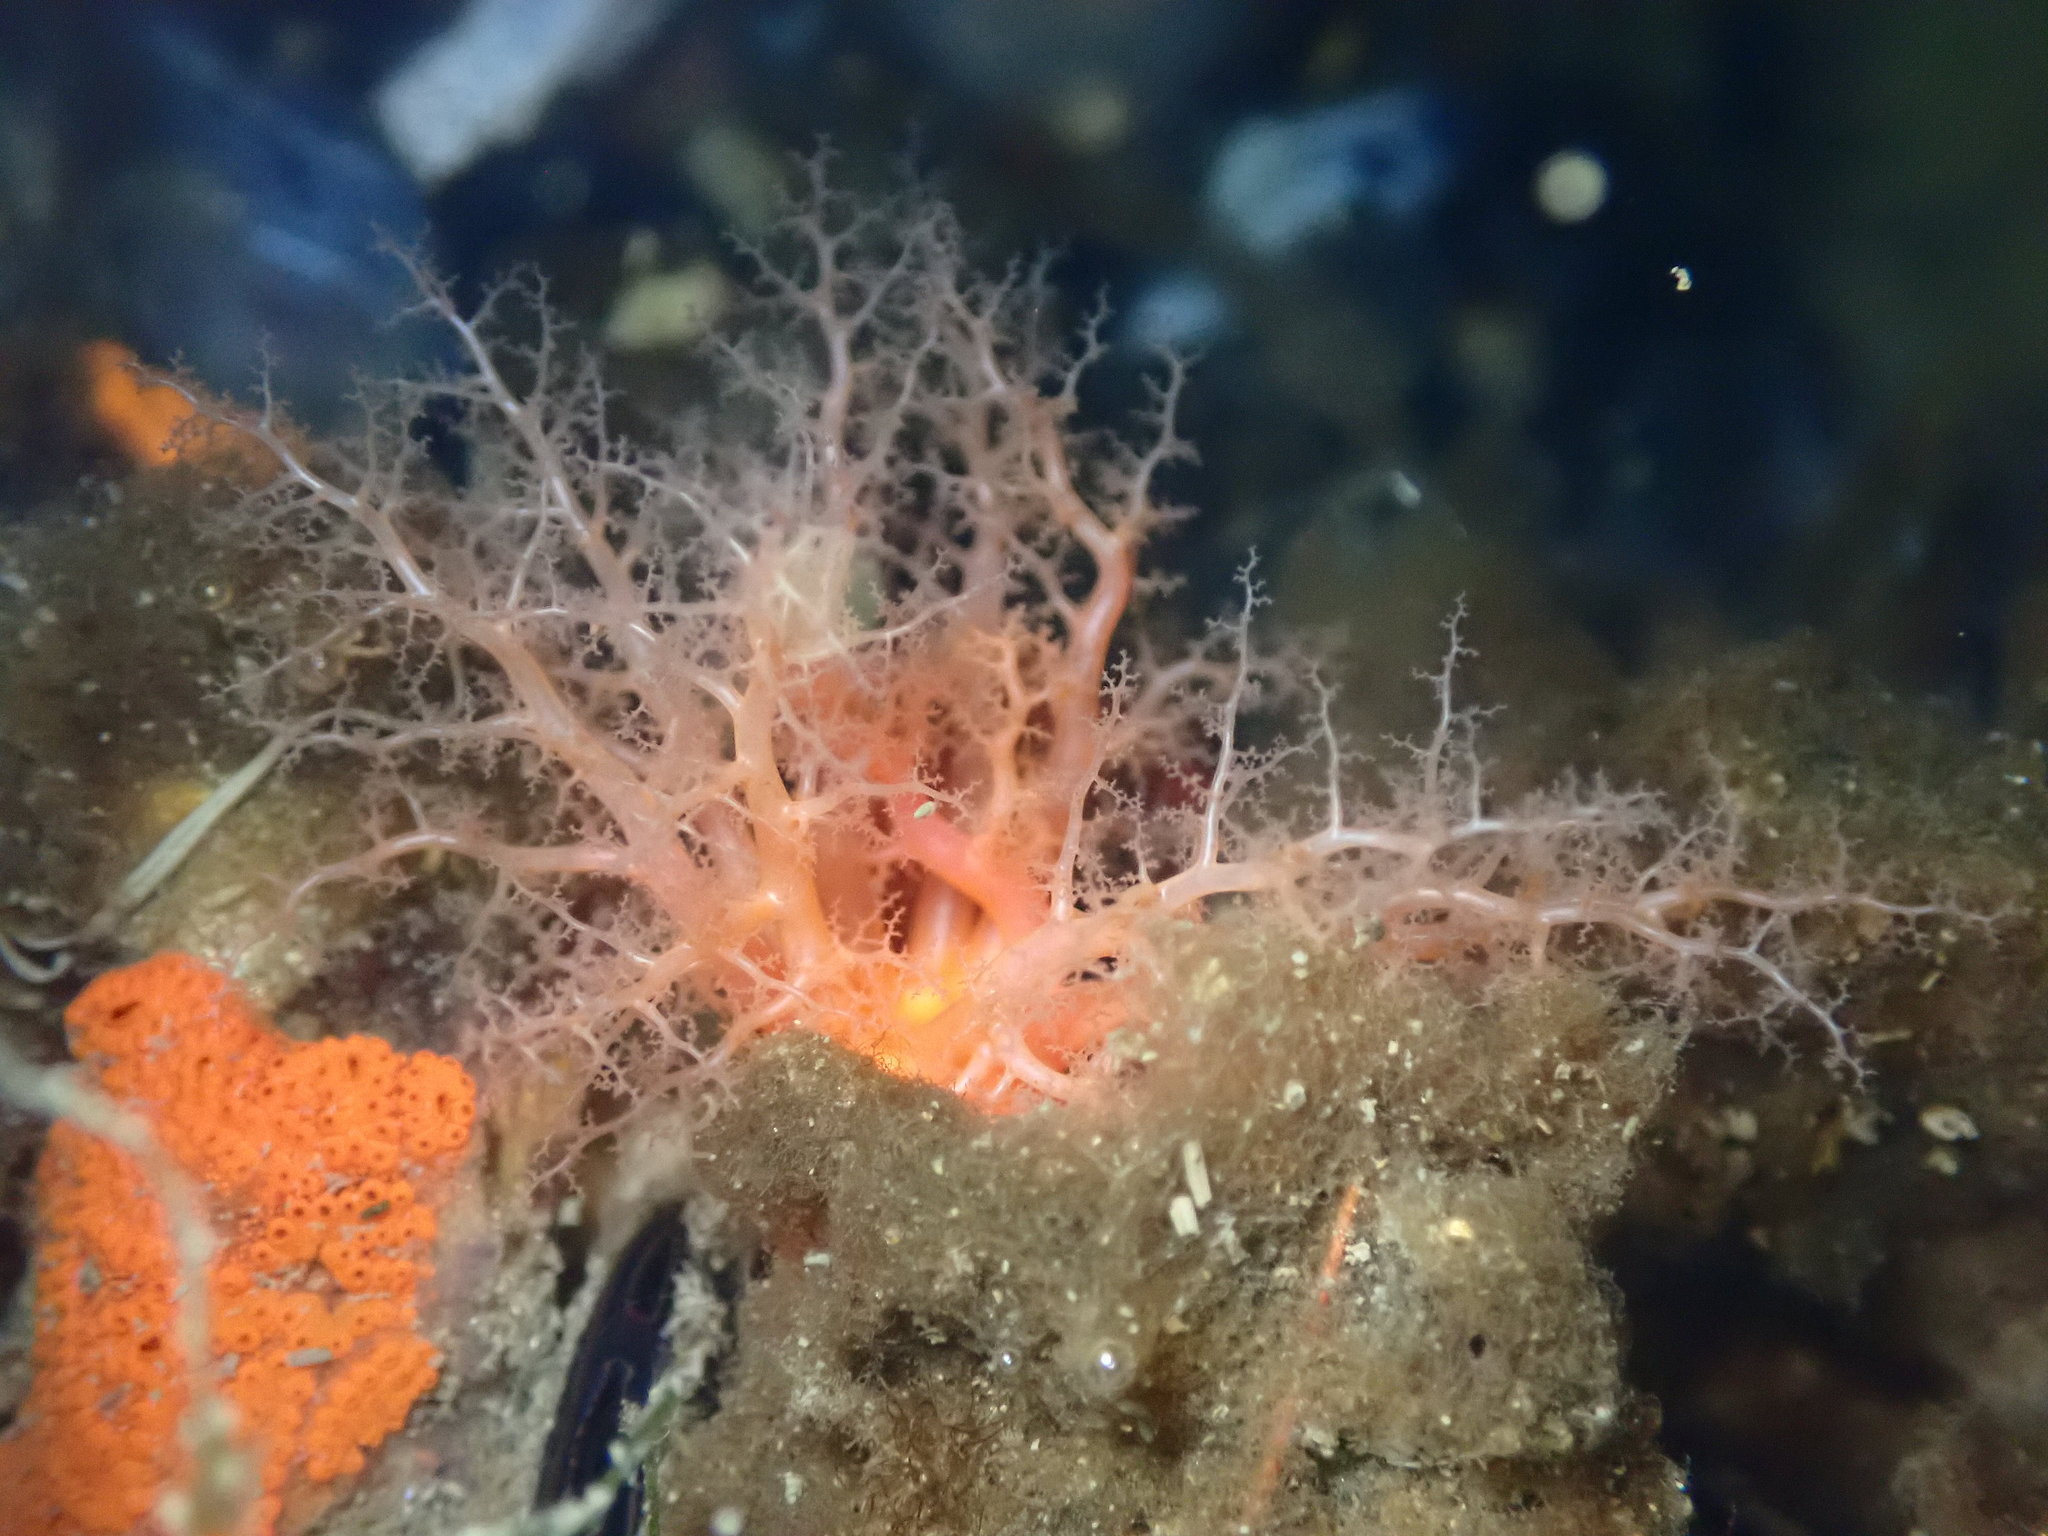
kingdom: Animalia
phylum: Echinodermata
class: Holothuroidea
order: Dendrochirotida
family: Cucumariidae
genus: Cucumaria
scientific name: Cucumaria miniata
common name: Orange sea cucumber
